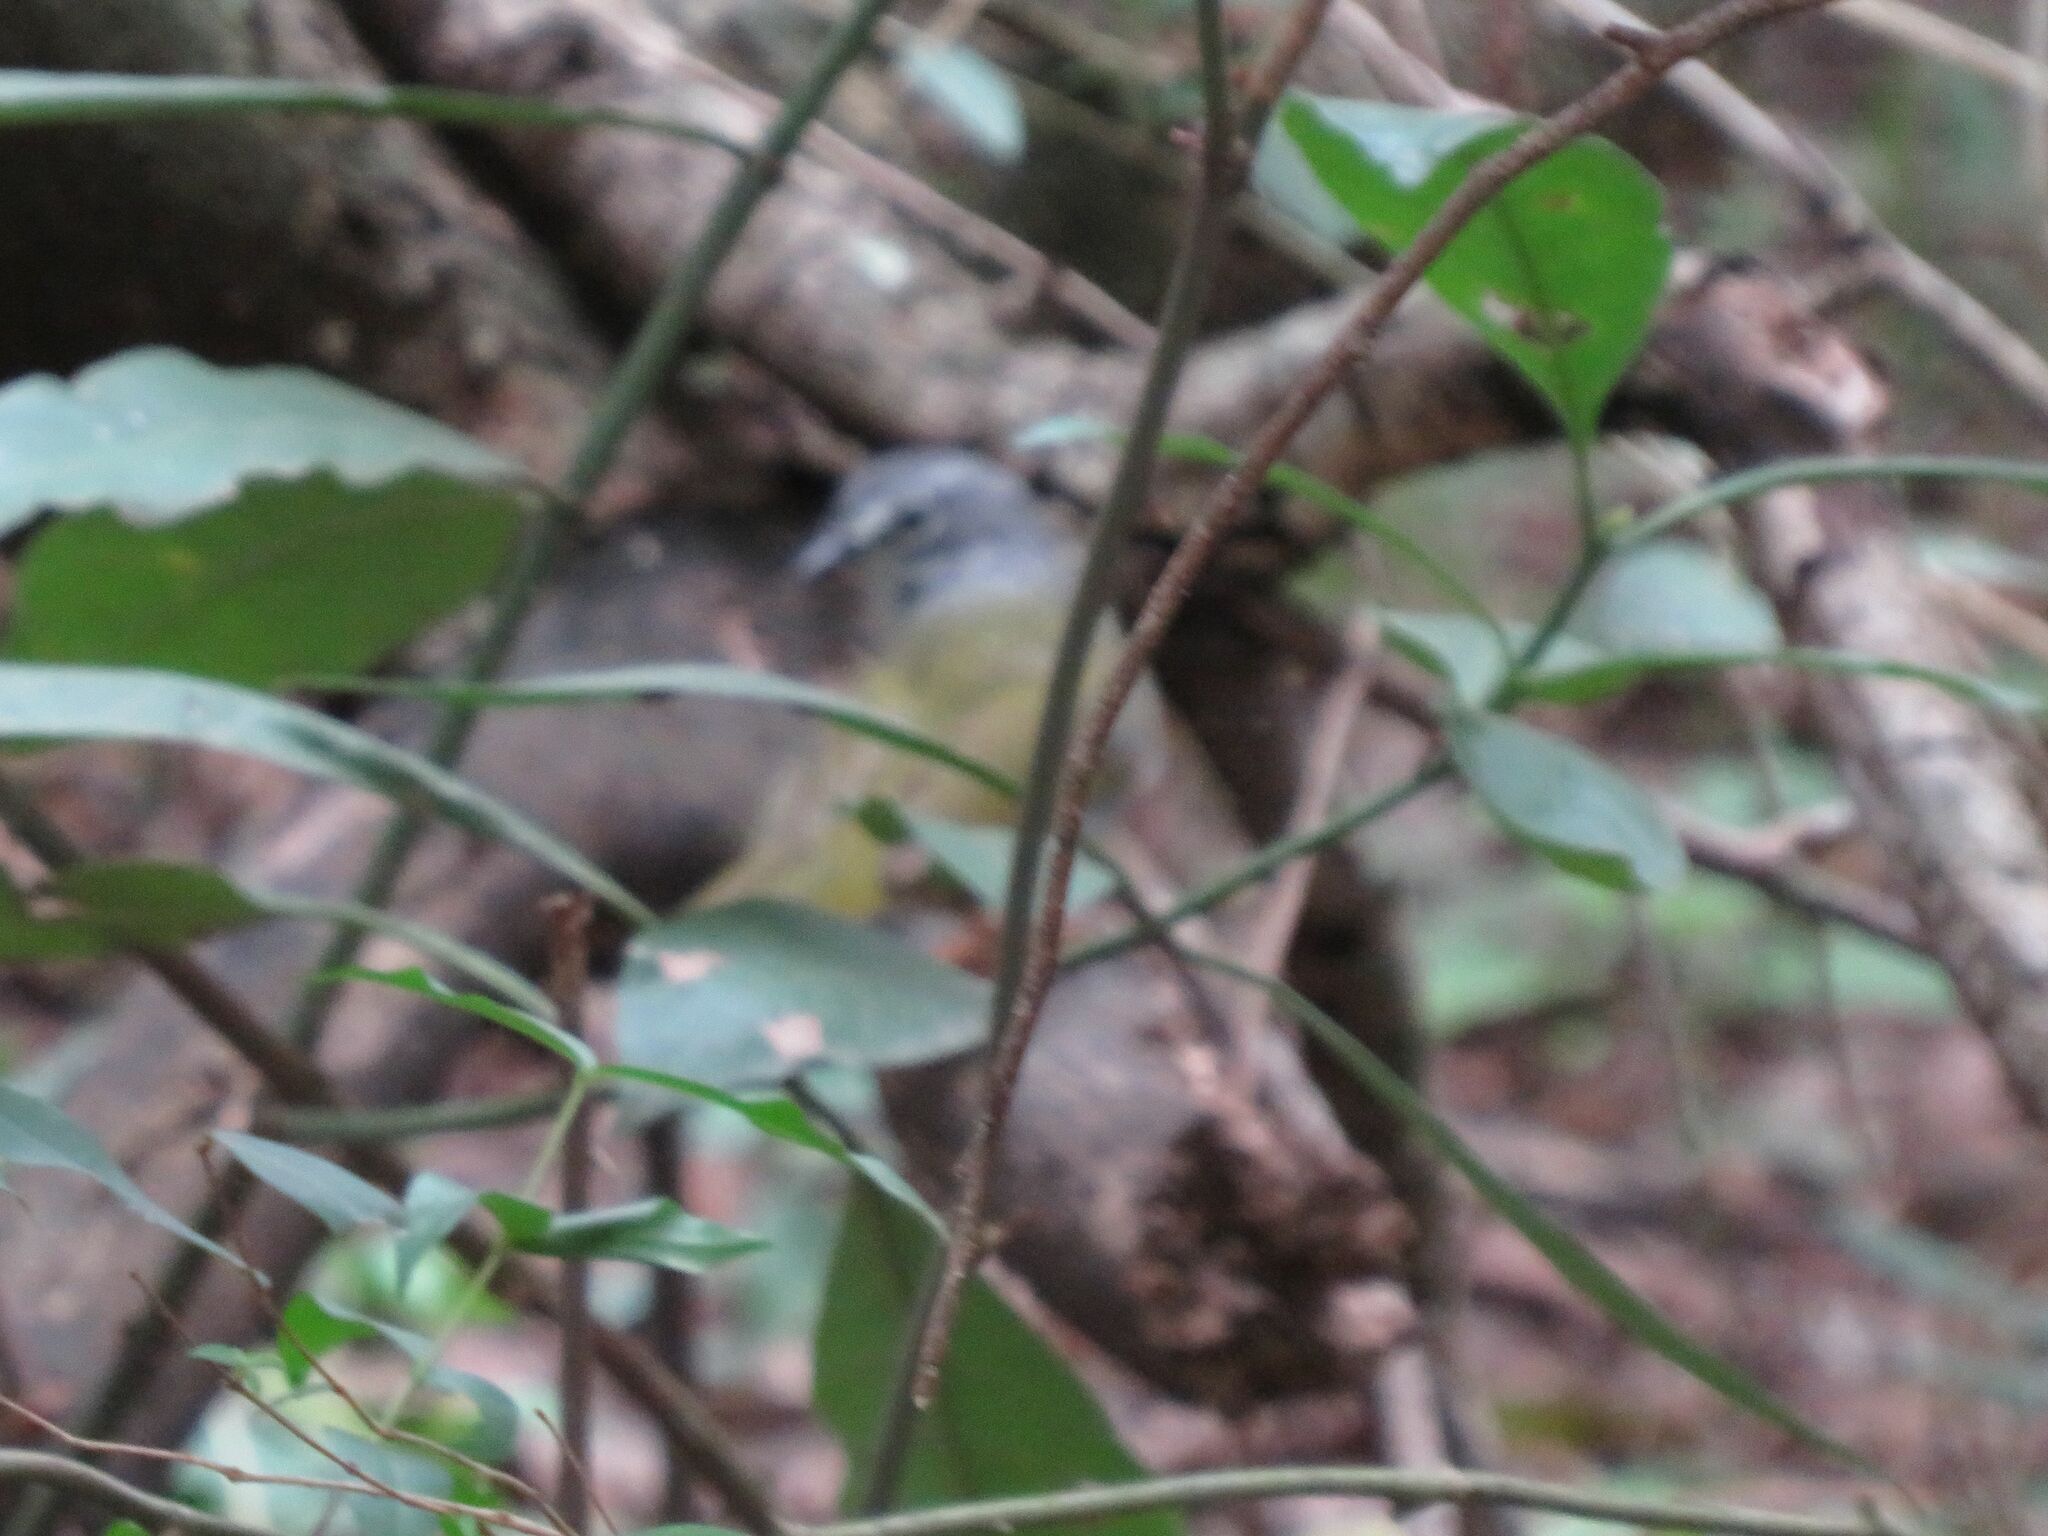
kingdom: Animalia
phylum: Chordata
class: Aves
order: Passeriformes
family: Parulidae
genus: Myiothlypis
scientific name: Myiothlypis leucoblephara
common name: White-rimmed warbler
